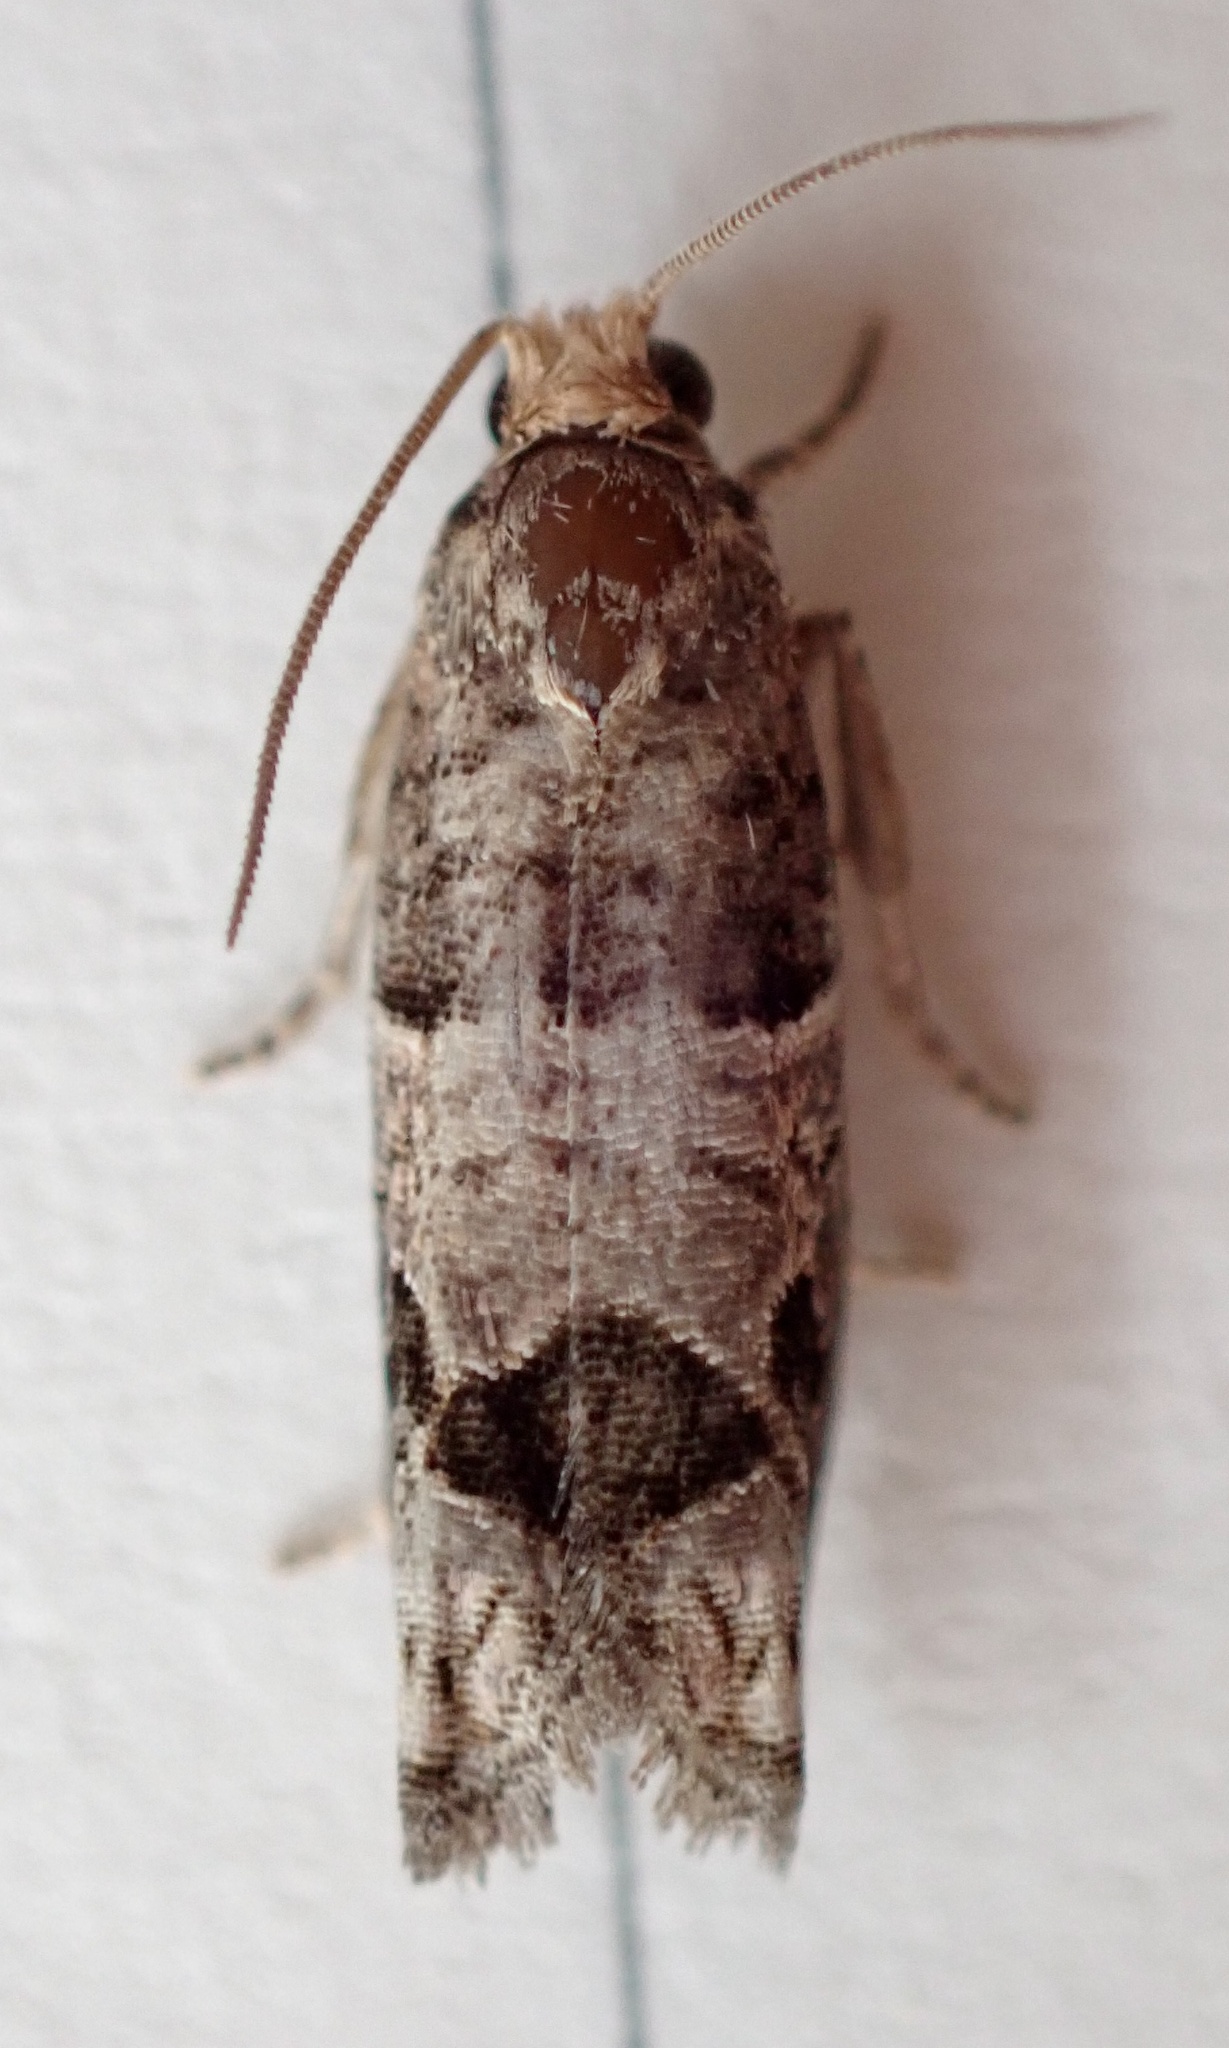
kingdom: Animalia
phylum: Arthropoda
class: Insecta
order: Lepidoptera
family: Tortricidae
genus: Sonia
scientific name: Sonia paraplesiana
